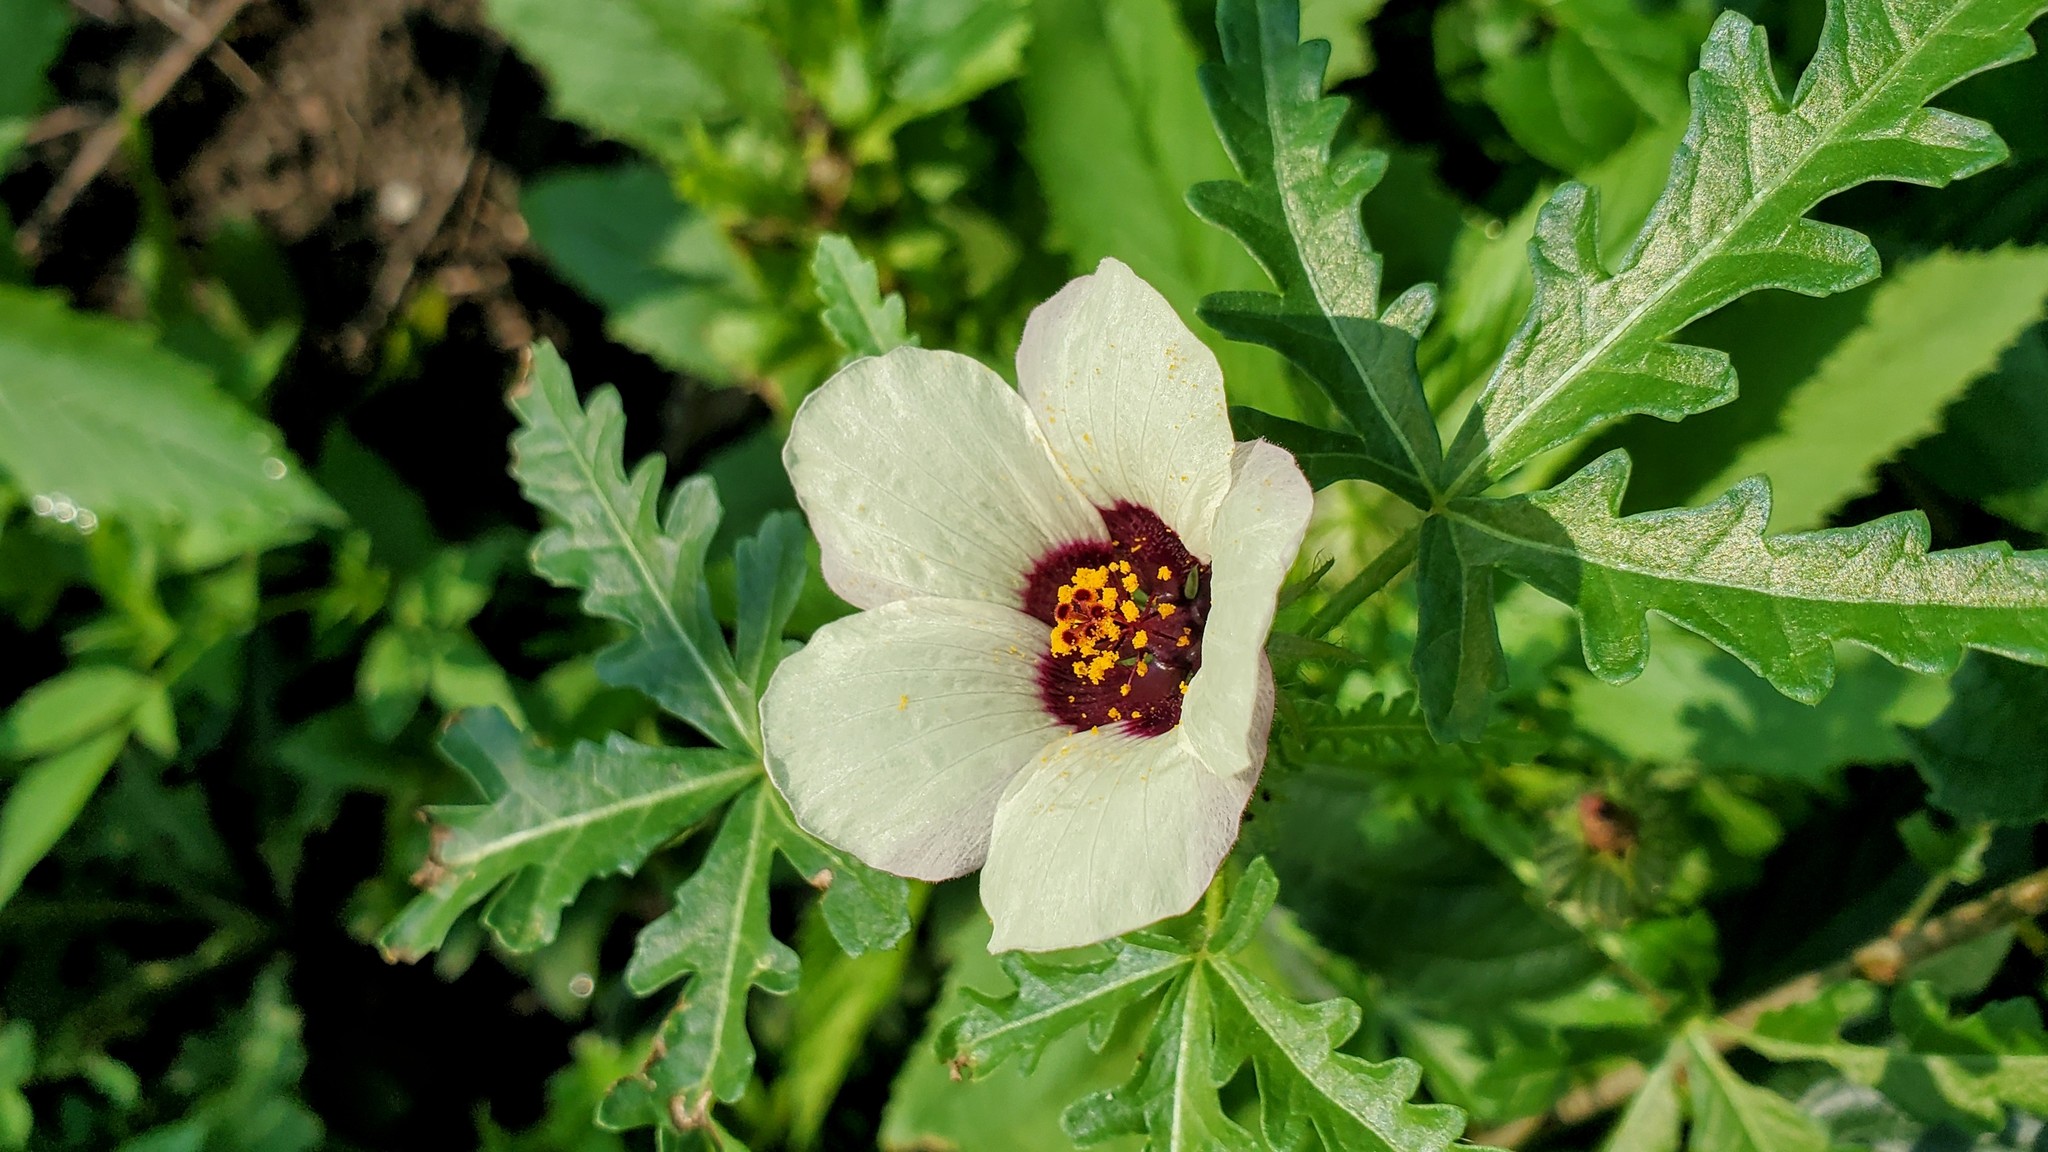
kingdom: Plantae
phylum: Tracheophyta
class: Magnoliopsida
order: Malvales
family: Malvaceae
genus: Hibiscus
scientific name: Hibiscus trionum
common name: Bladder ketmia
